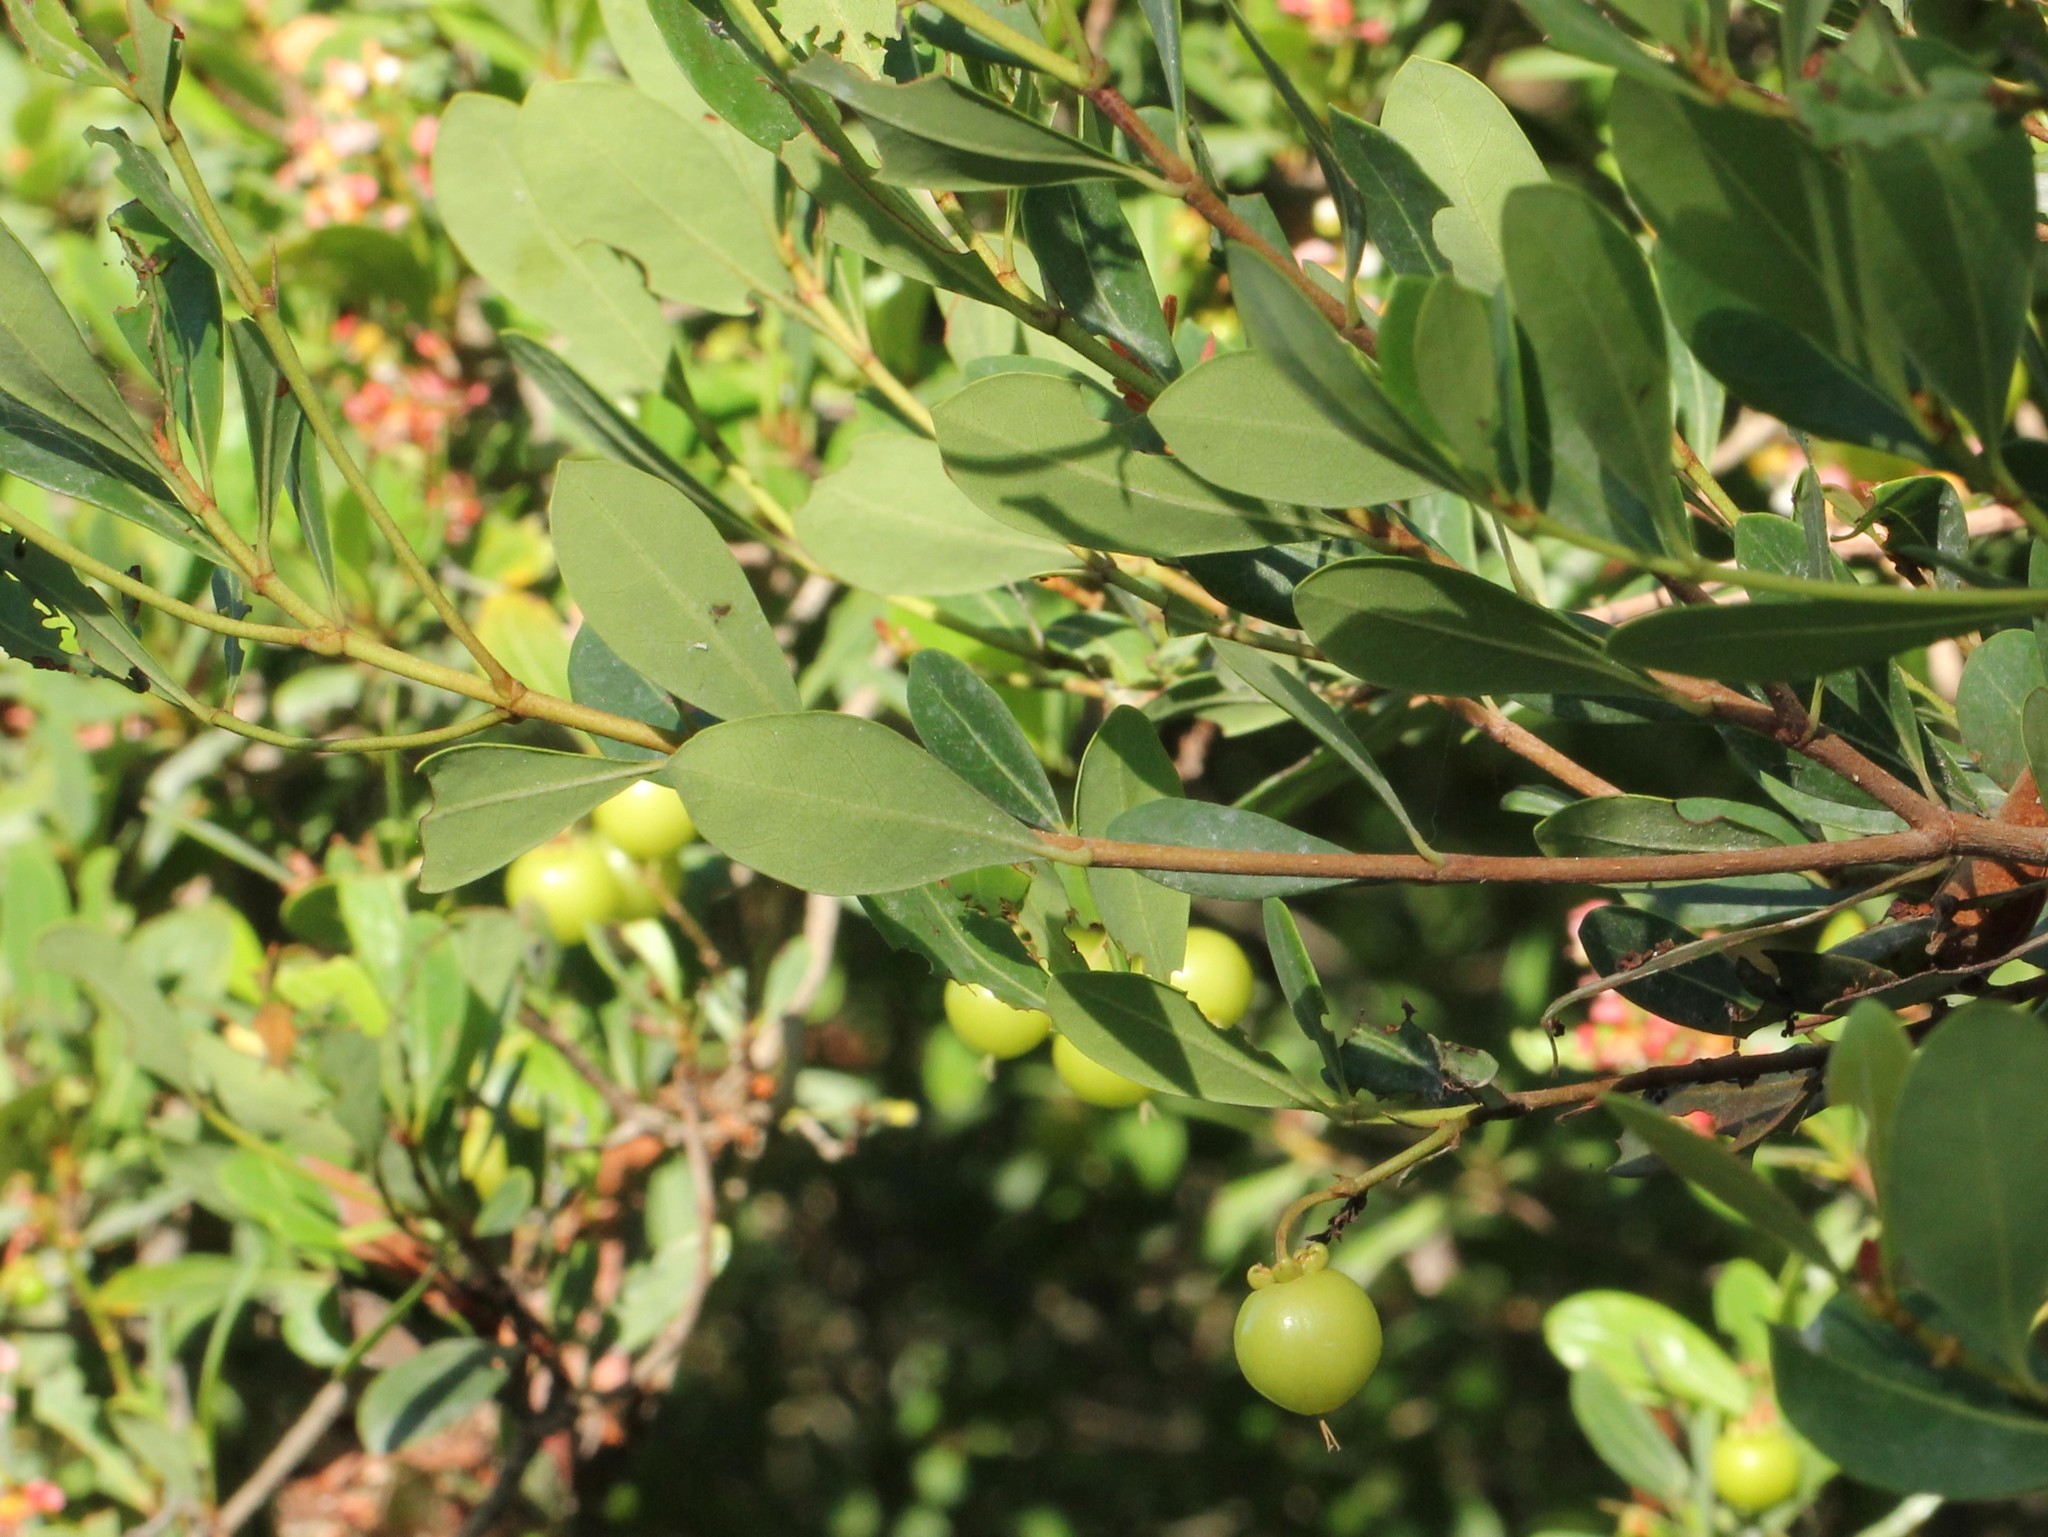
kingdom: Plantae
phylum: Tracheophyta
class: Magnoliopsida
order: Malpighiales
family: Malpighiaceae
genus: Byrsonima
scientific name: Byrsonima lucida
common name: Clam-cherry
